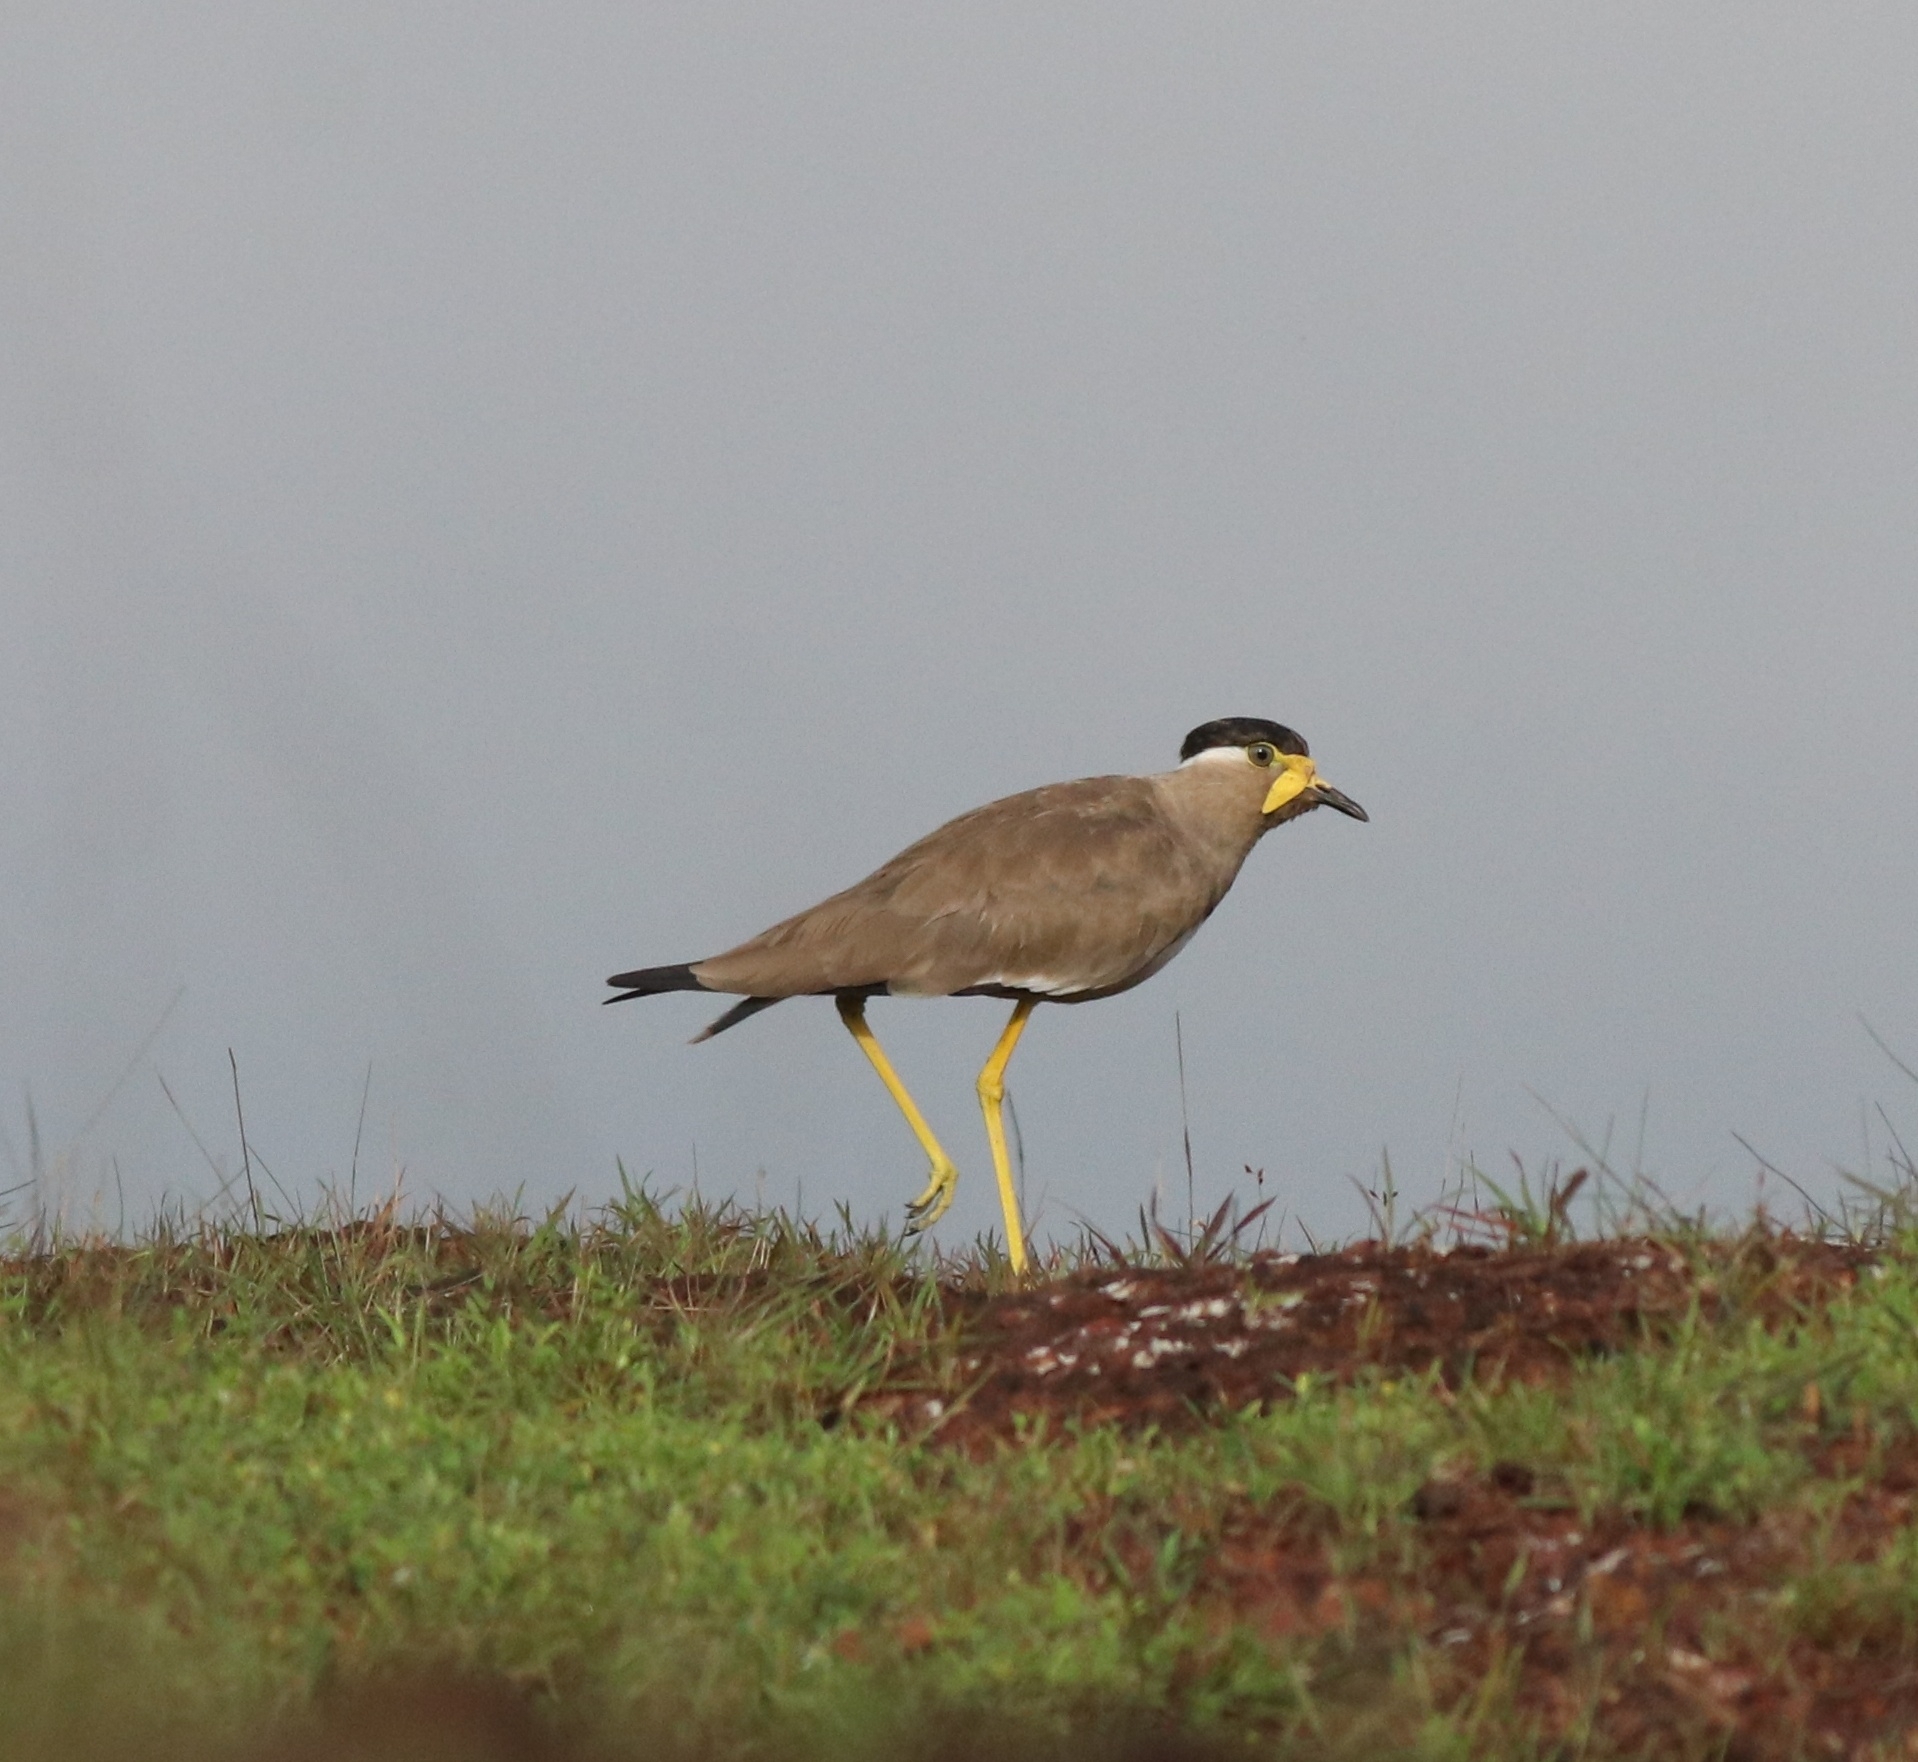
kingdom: Animalia
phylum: Chordata
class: Aves
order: Charadriiformes
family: Charadriidae
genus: Vanellus
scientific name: Vanellus malabaricus
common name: Yellow-wattled lapwing
